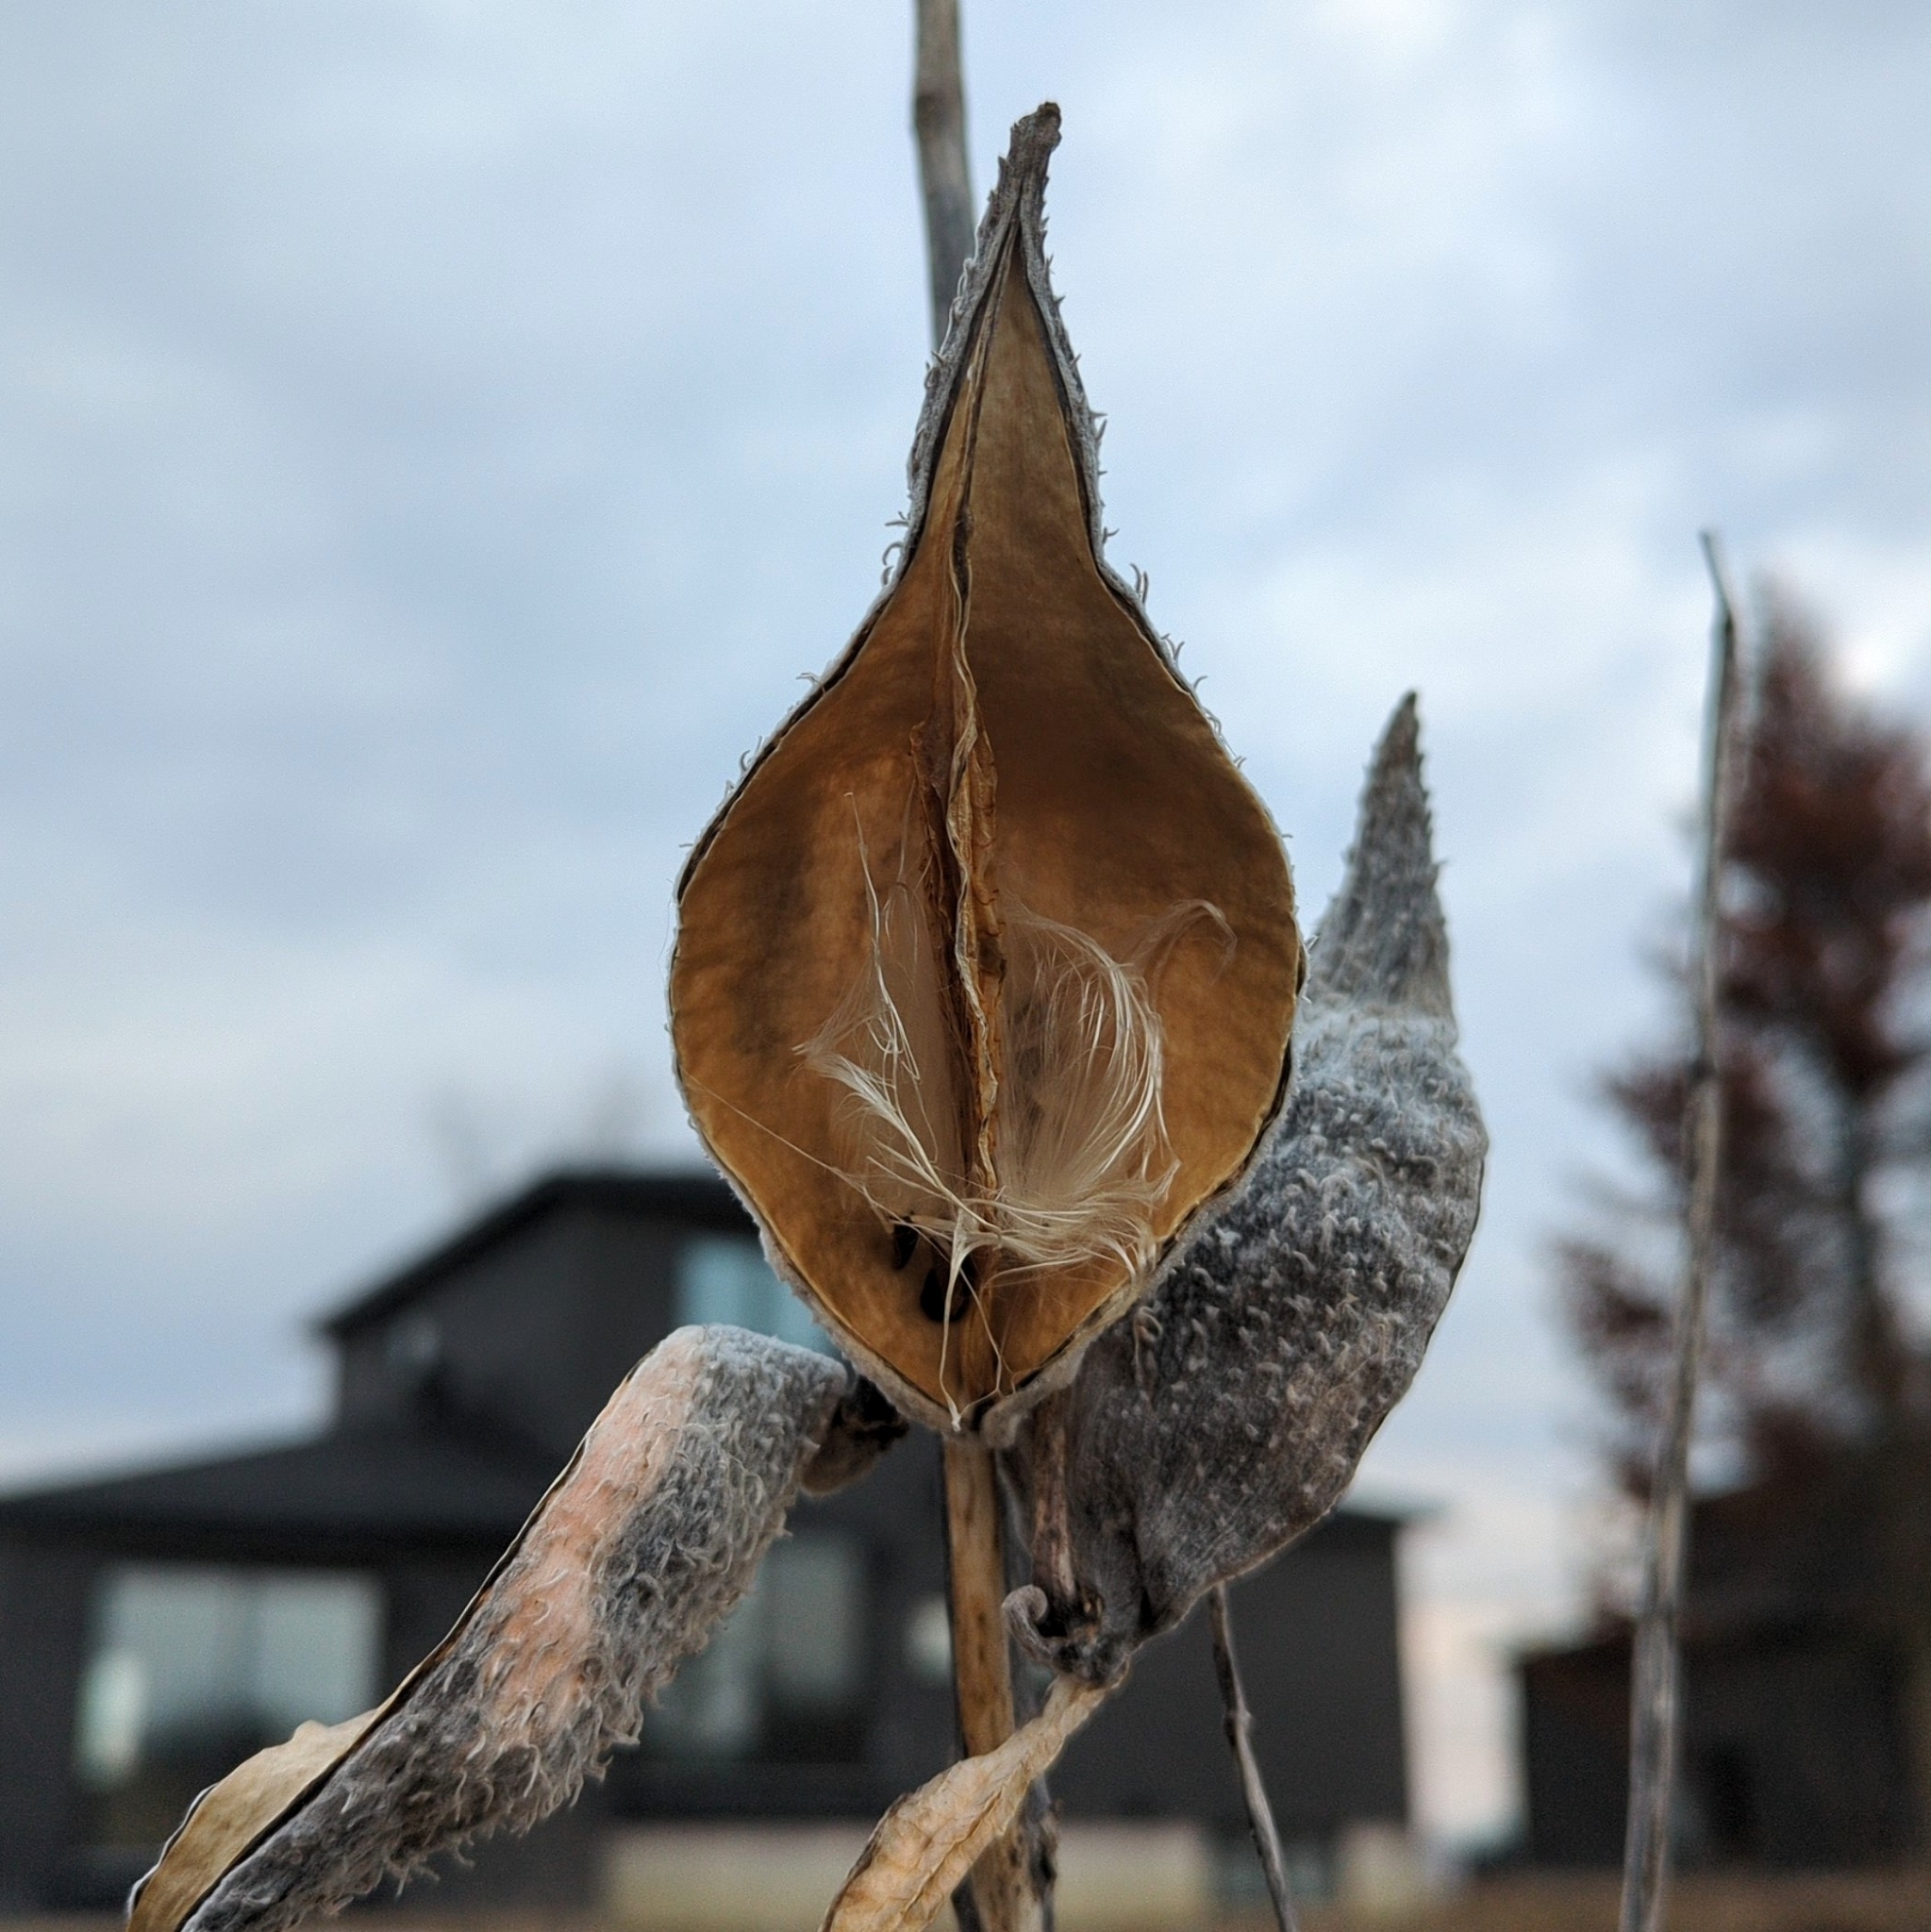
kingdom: Plantae
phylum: Tracheophyta
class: Magnoliopsida
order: Gentianales
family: Apocynaceae
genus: Asclepias
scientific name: Asclepias syriaca
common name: Common milkweed
